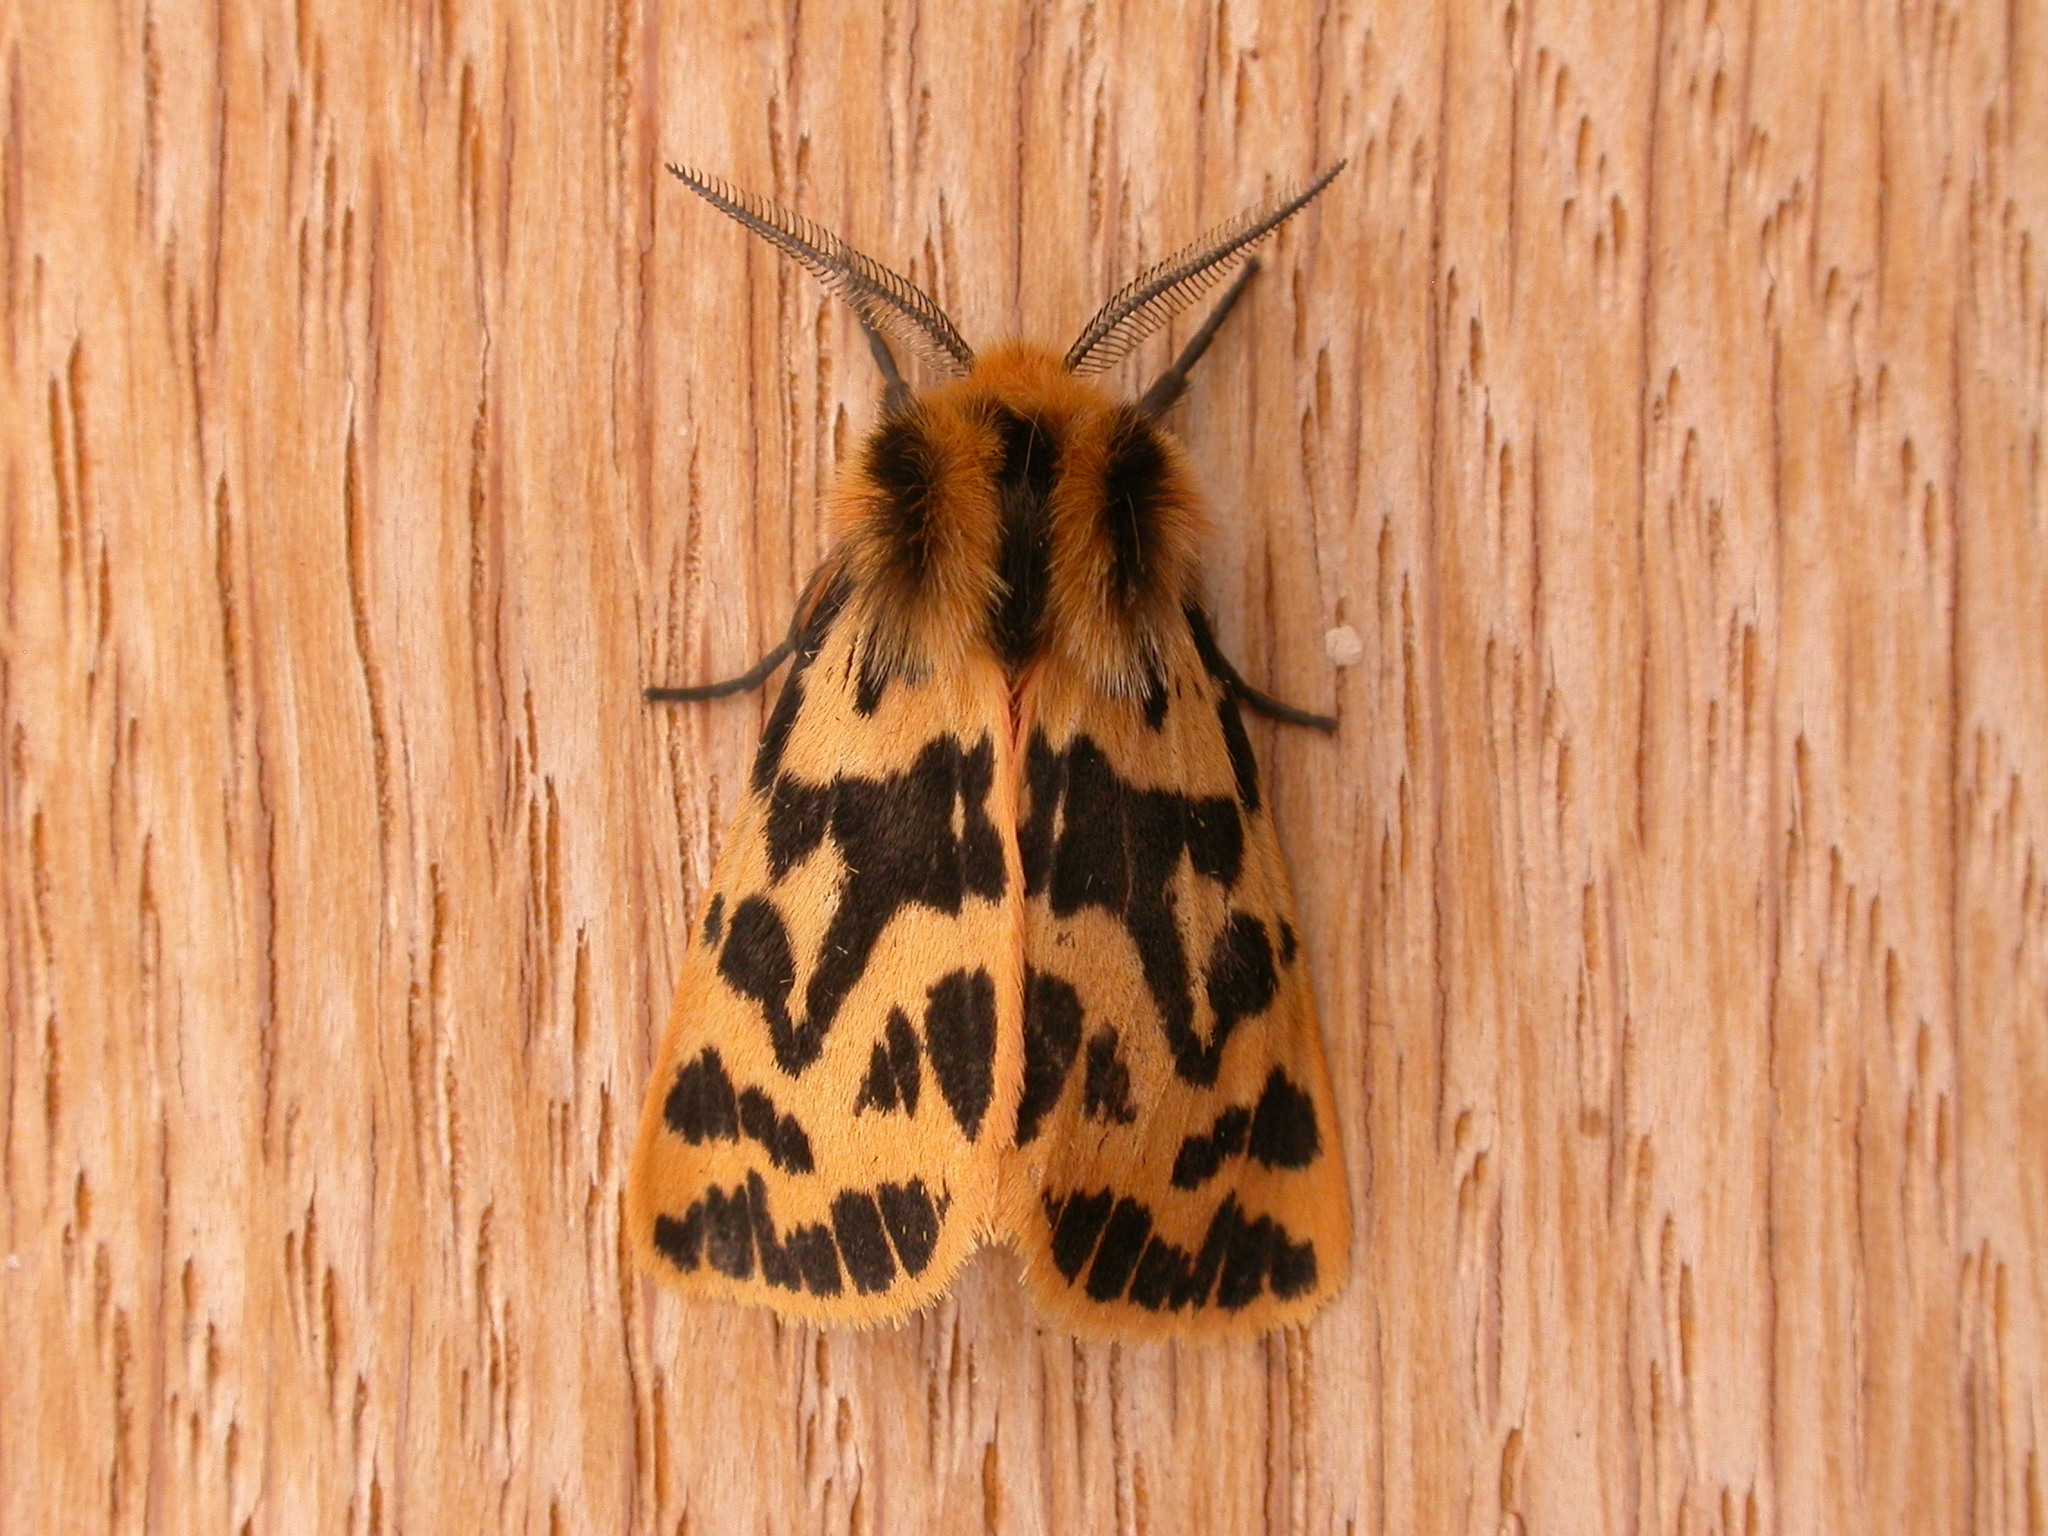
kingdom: Animalia
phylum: Arthropoda
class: Insecta
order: Lepidoptera
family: Erebidae
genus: Ardices
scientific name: Ardices curvata
